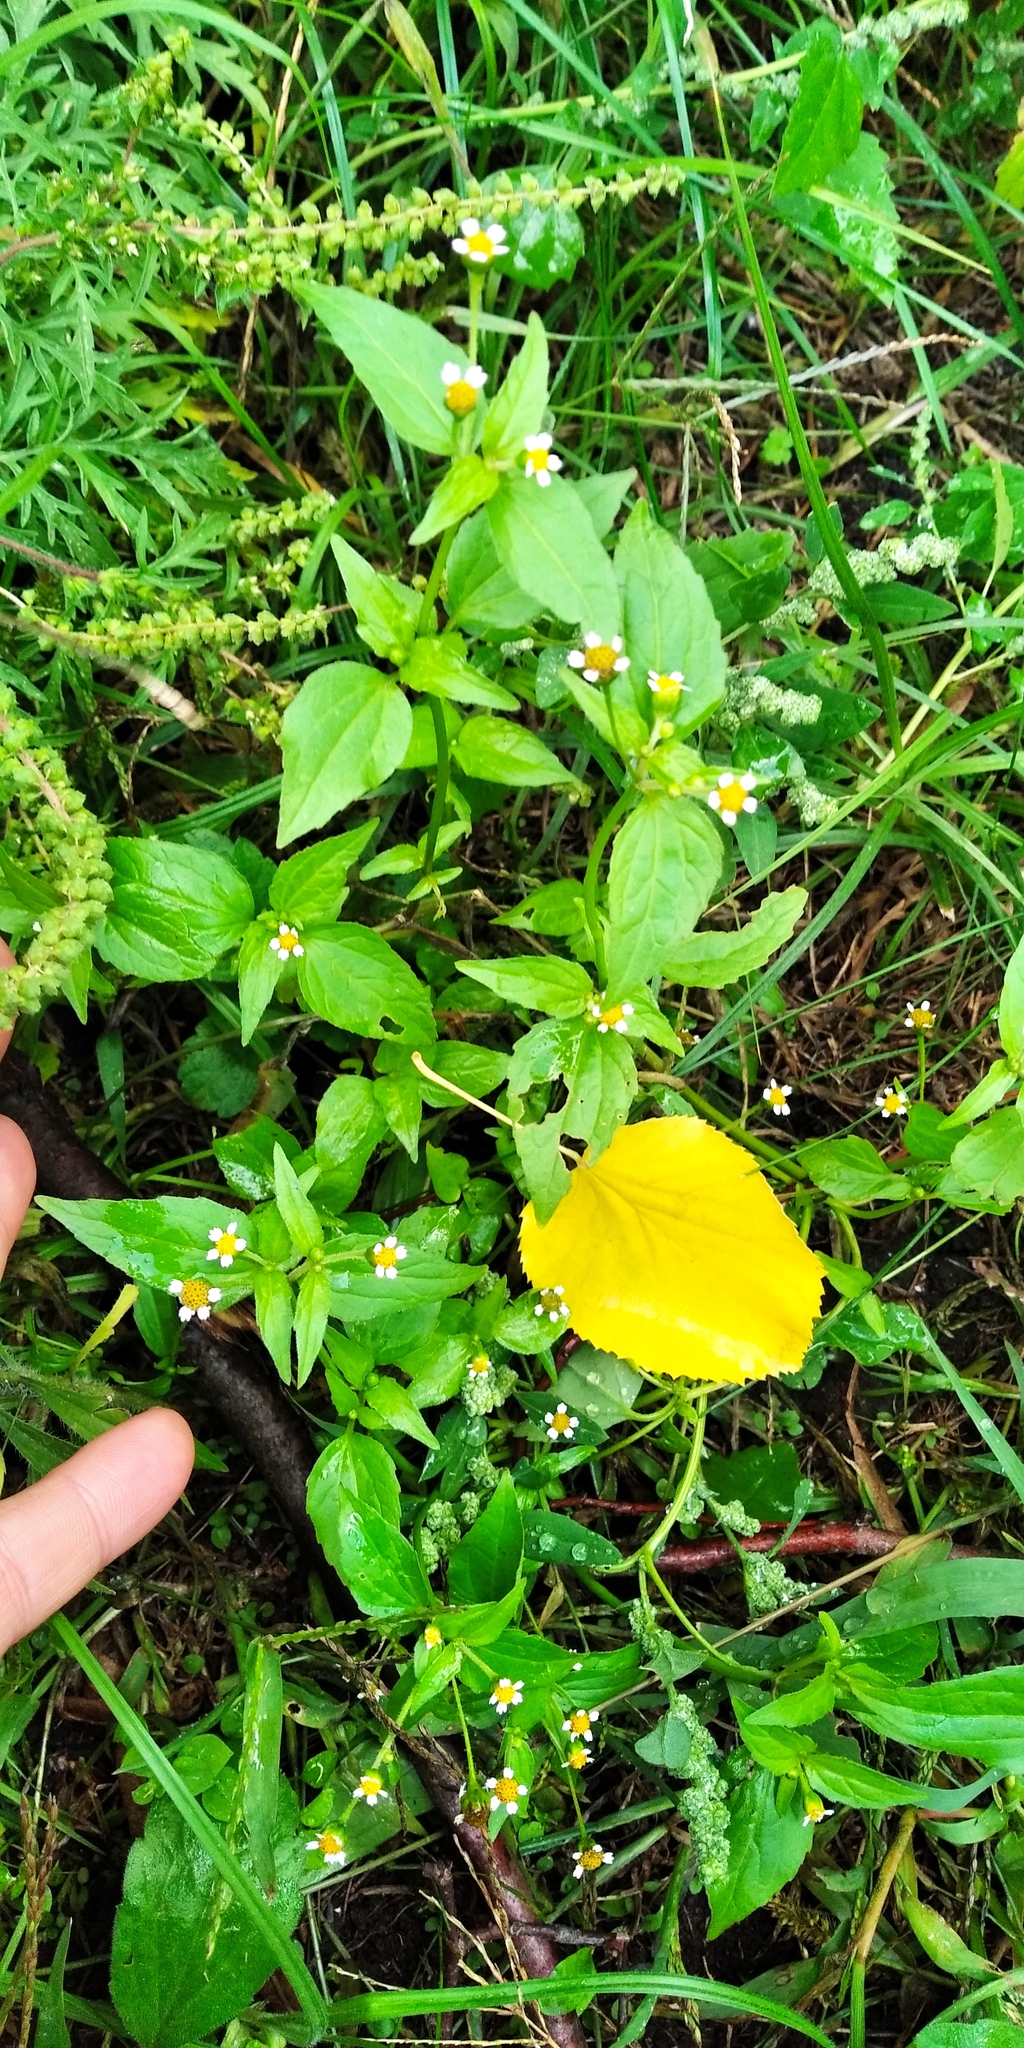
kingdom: Plantae
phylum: Tracheophyta
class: Magnoliopsida
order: Asterales
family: Asteraceae
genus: Galinsoga
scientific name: Galinsoga parviflora
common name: Gallant soldier
